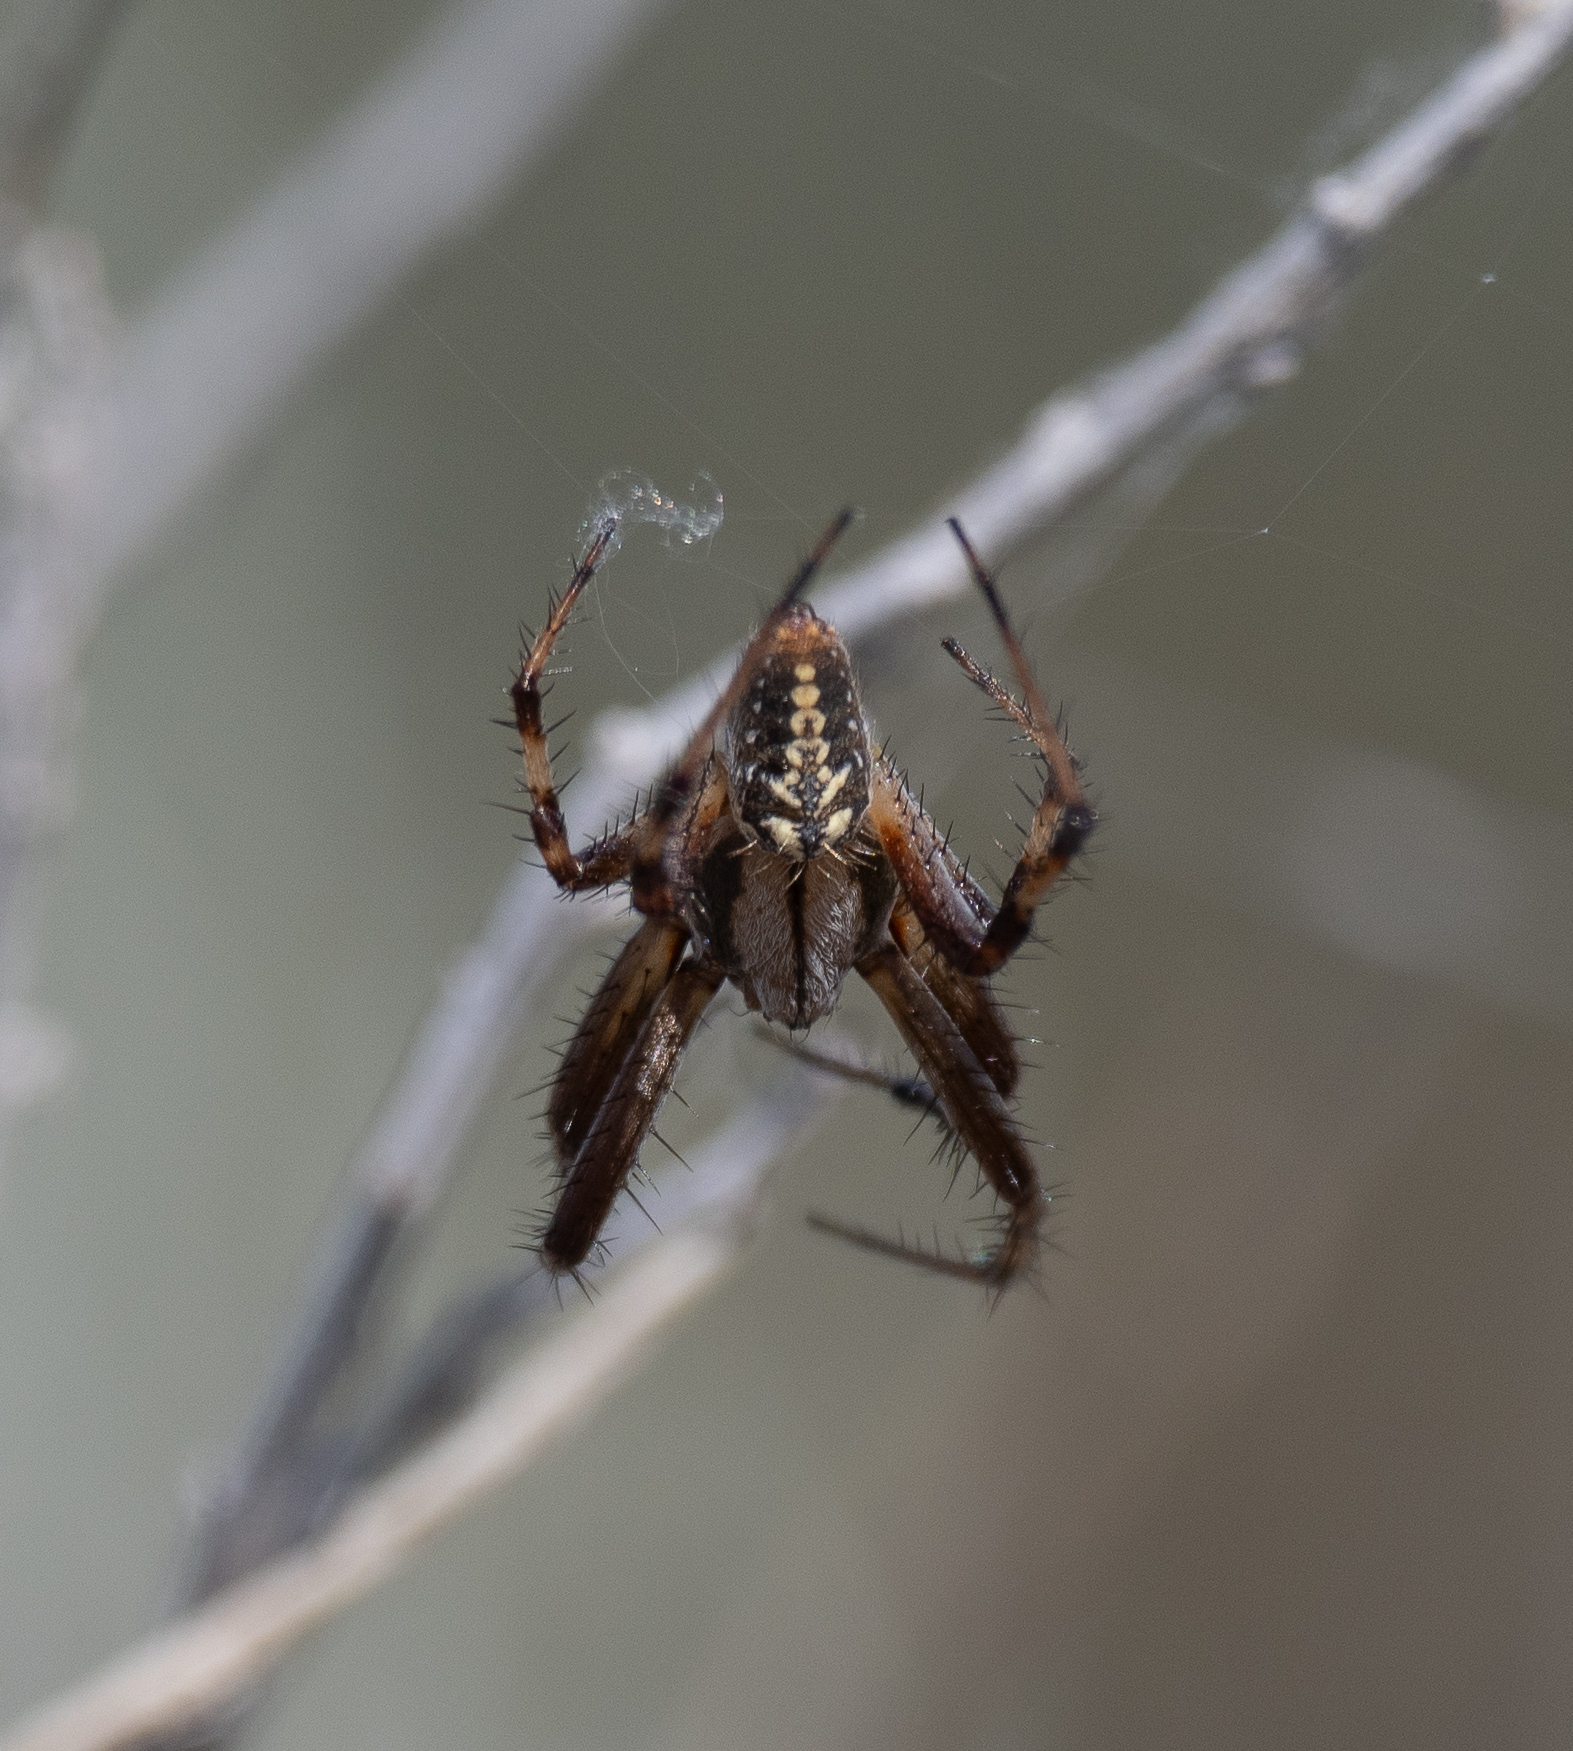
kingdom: Animalia
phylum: Arthropoda
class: Arachnida
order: Araneae
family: Araneidae
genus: Neoscona
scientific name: Neoscona oaxacensis
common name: Orb weavers
